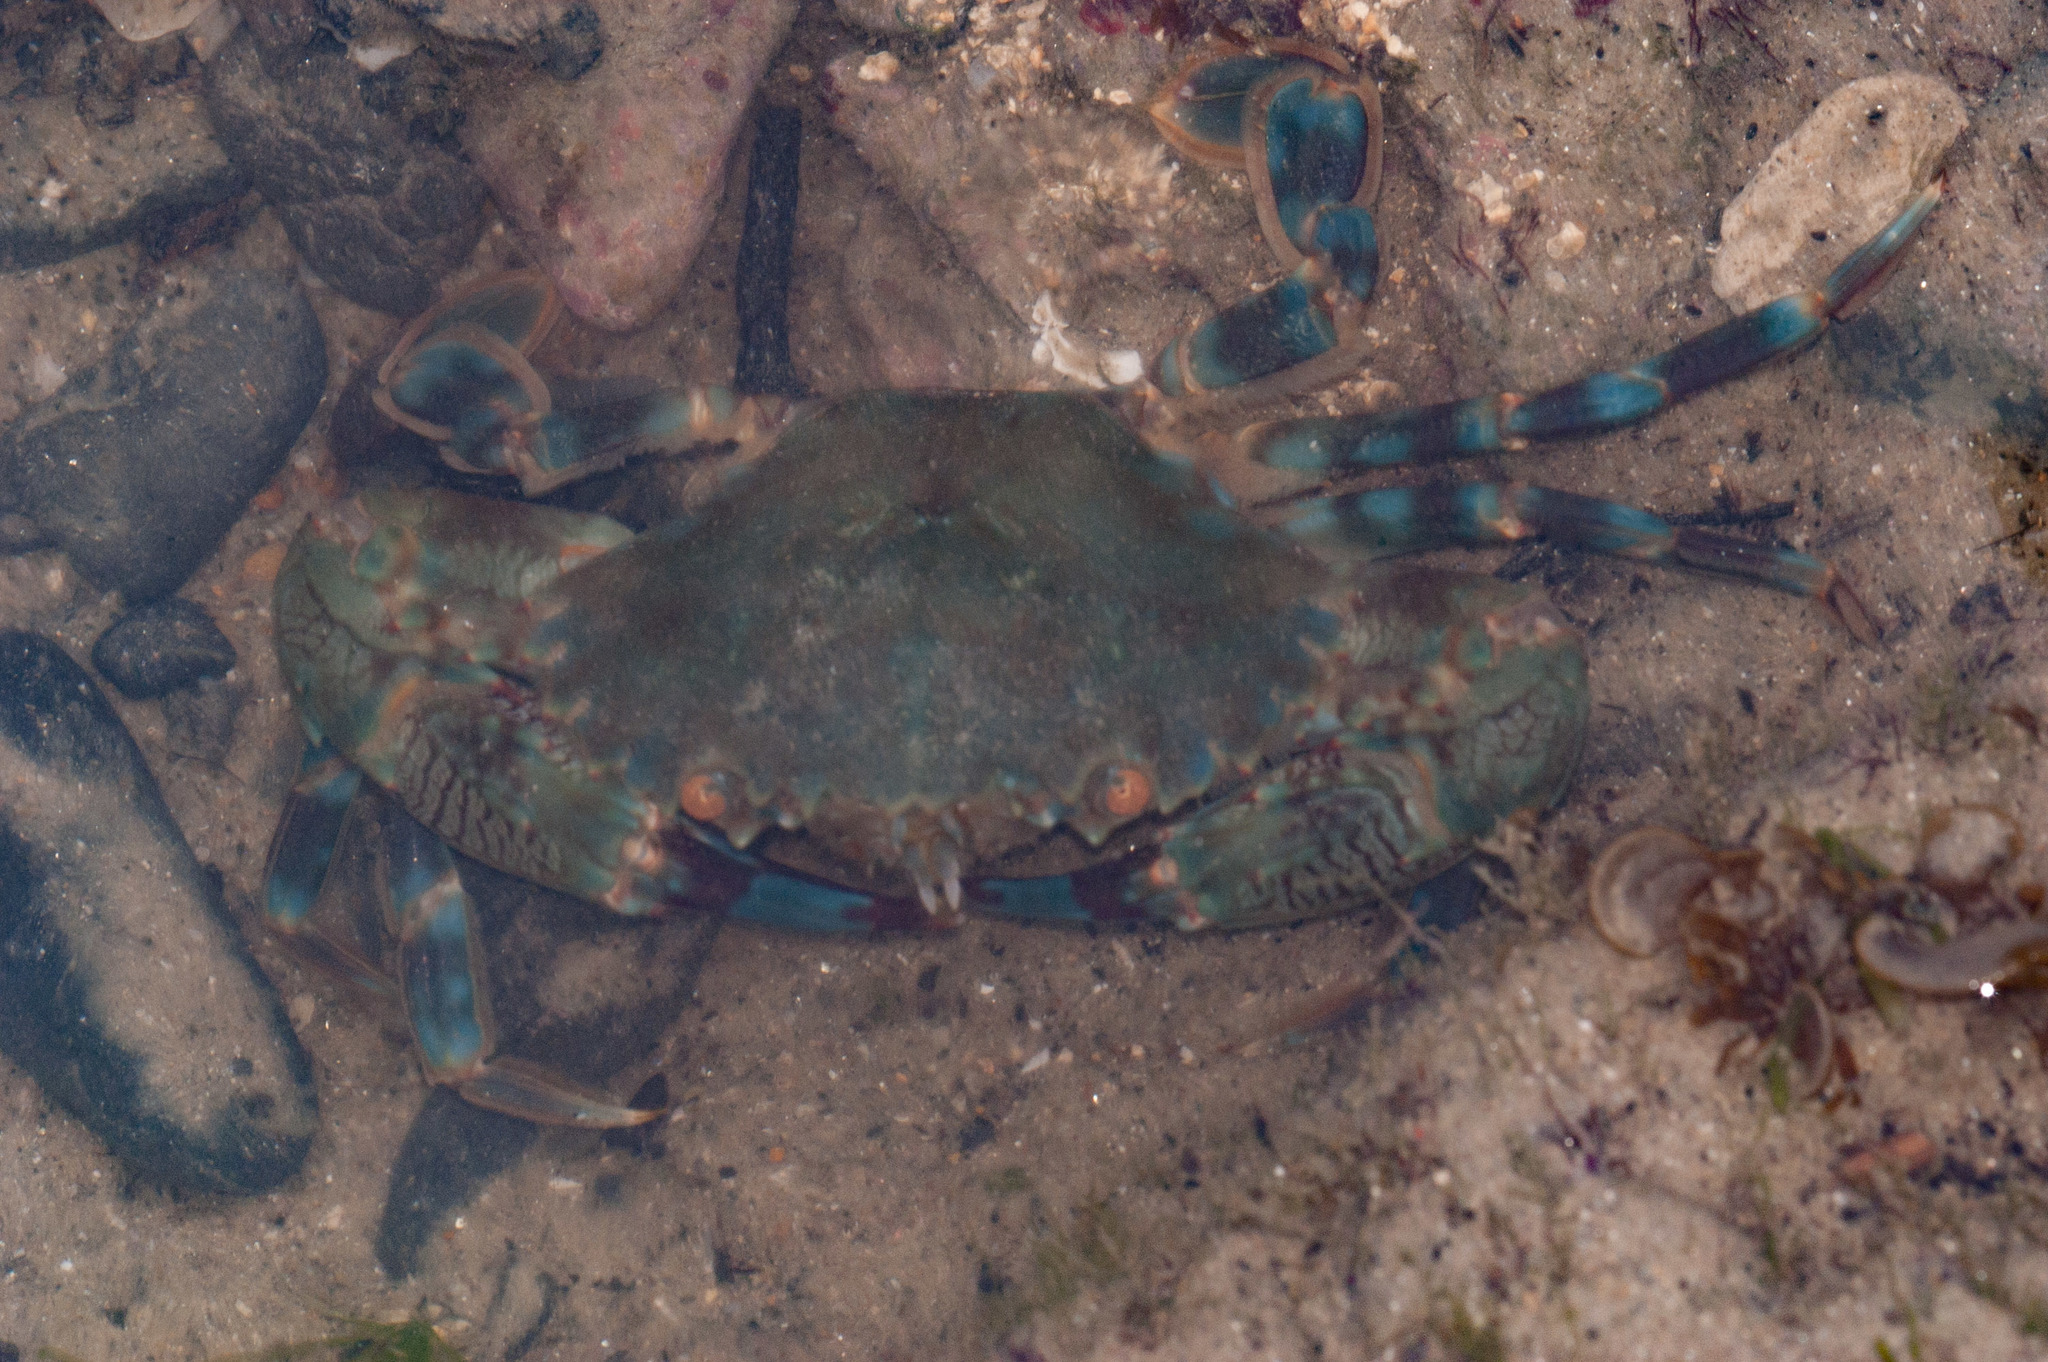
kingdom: Animalia
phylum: Arthropoda
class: Malacostraca
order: Decapoda
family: Portunidae
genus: Charybdis
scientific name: Charybdis annulata
